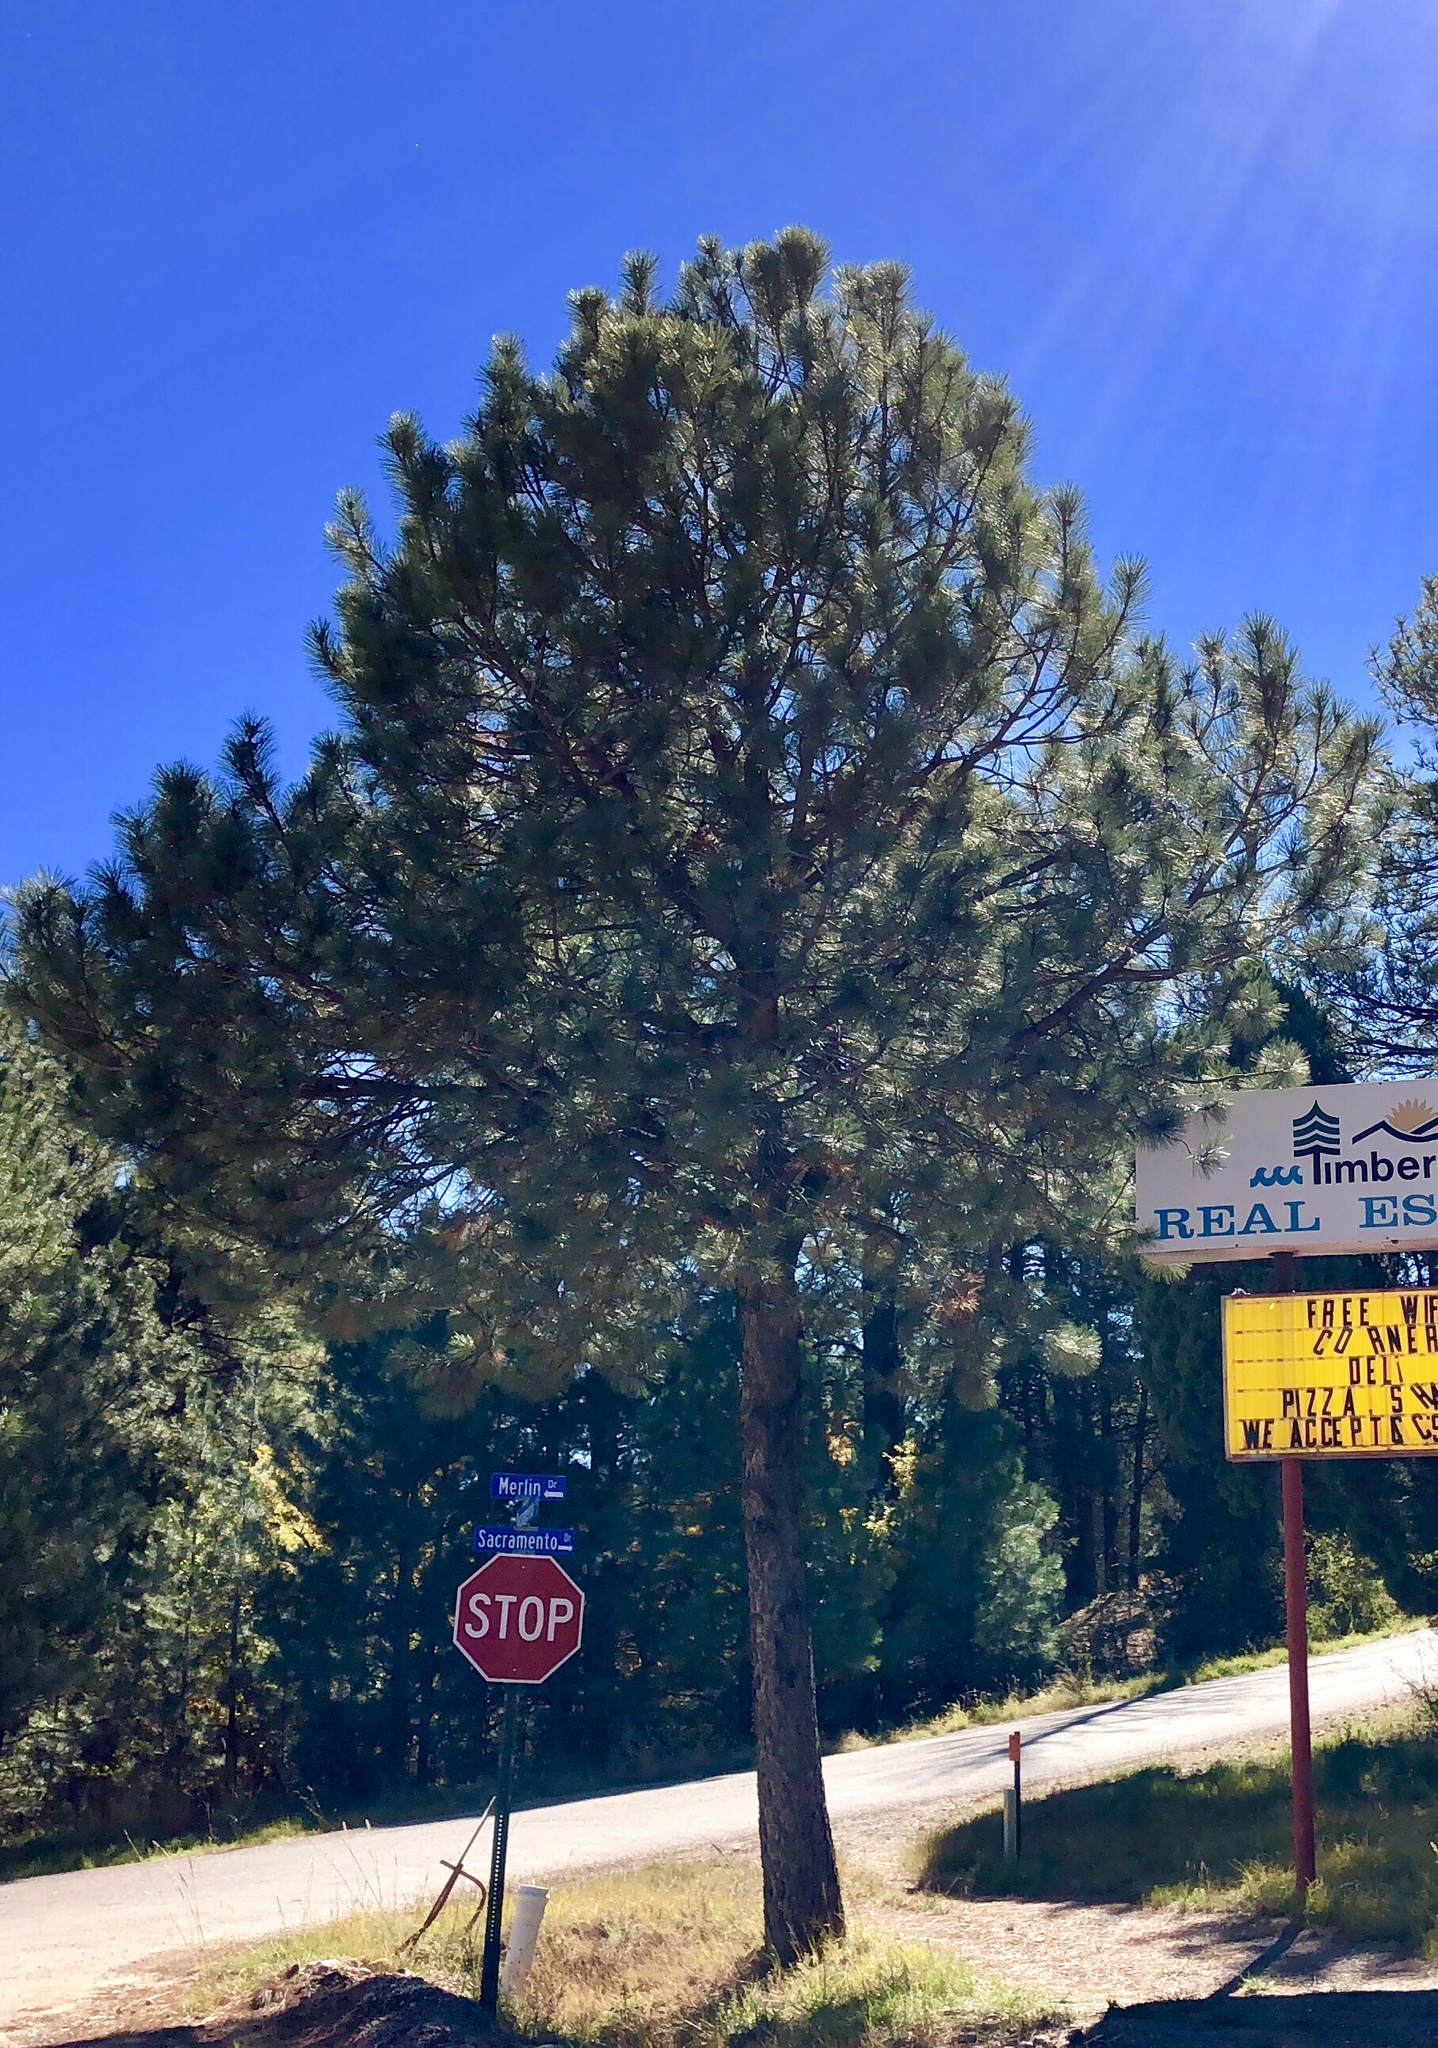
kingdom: Plantae
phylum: Tracheophyta
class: Pinopsida
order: Pinales
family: Pinaceae
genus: Pinus
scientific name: Pinus ponderosa
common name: Western yellow-pine
